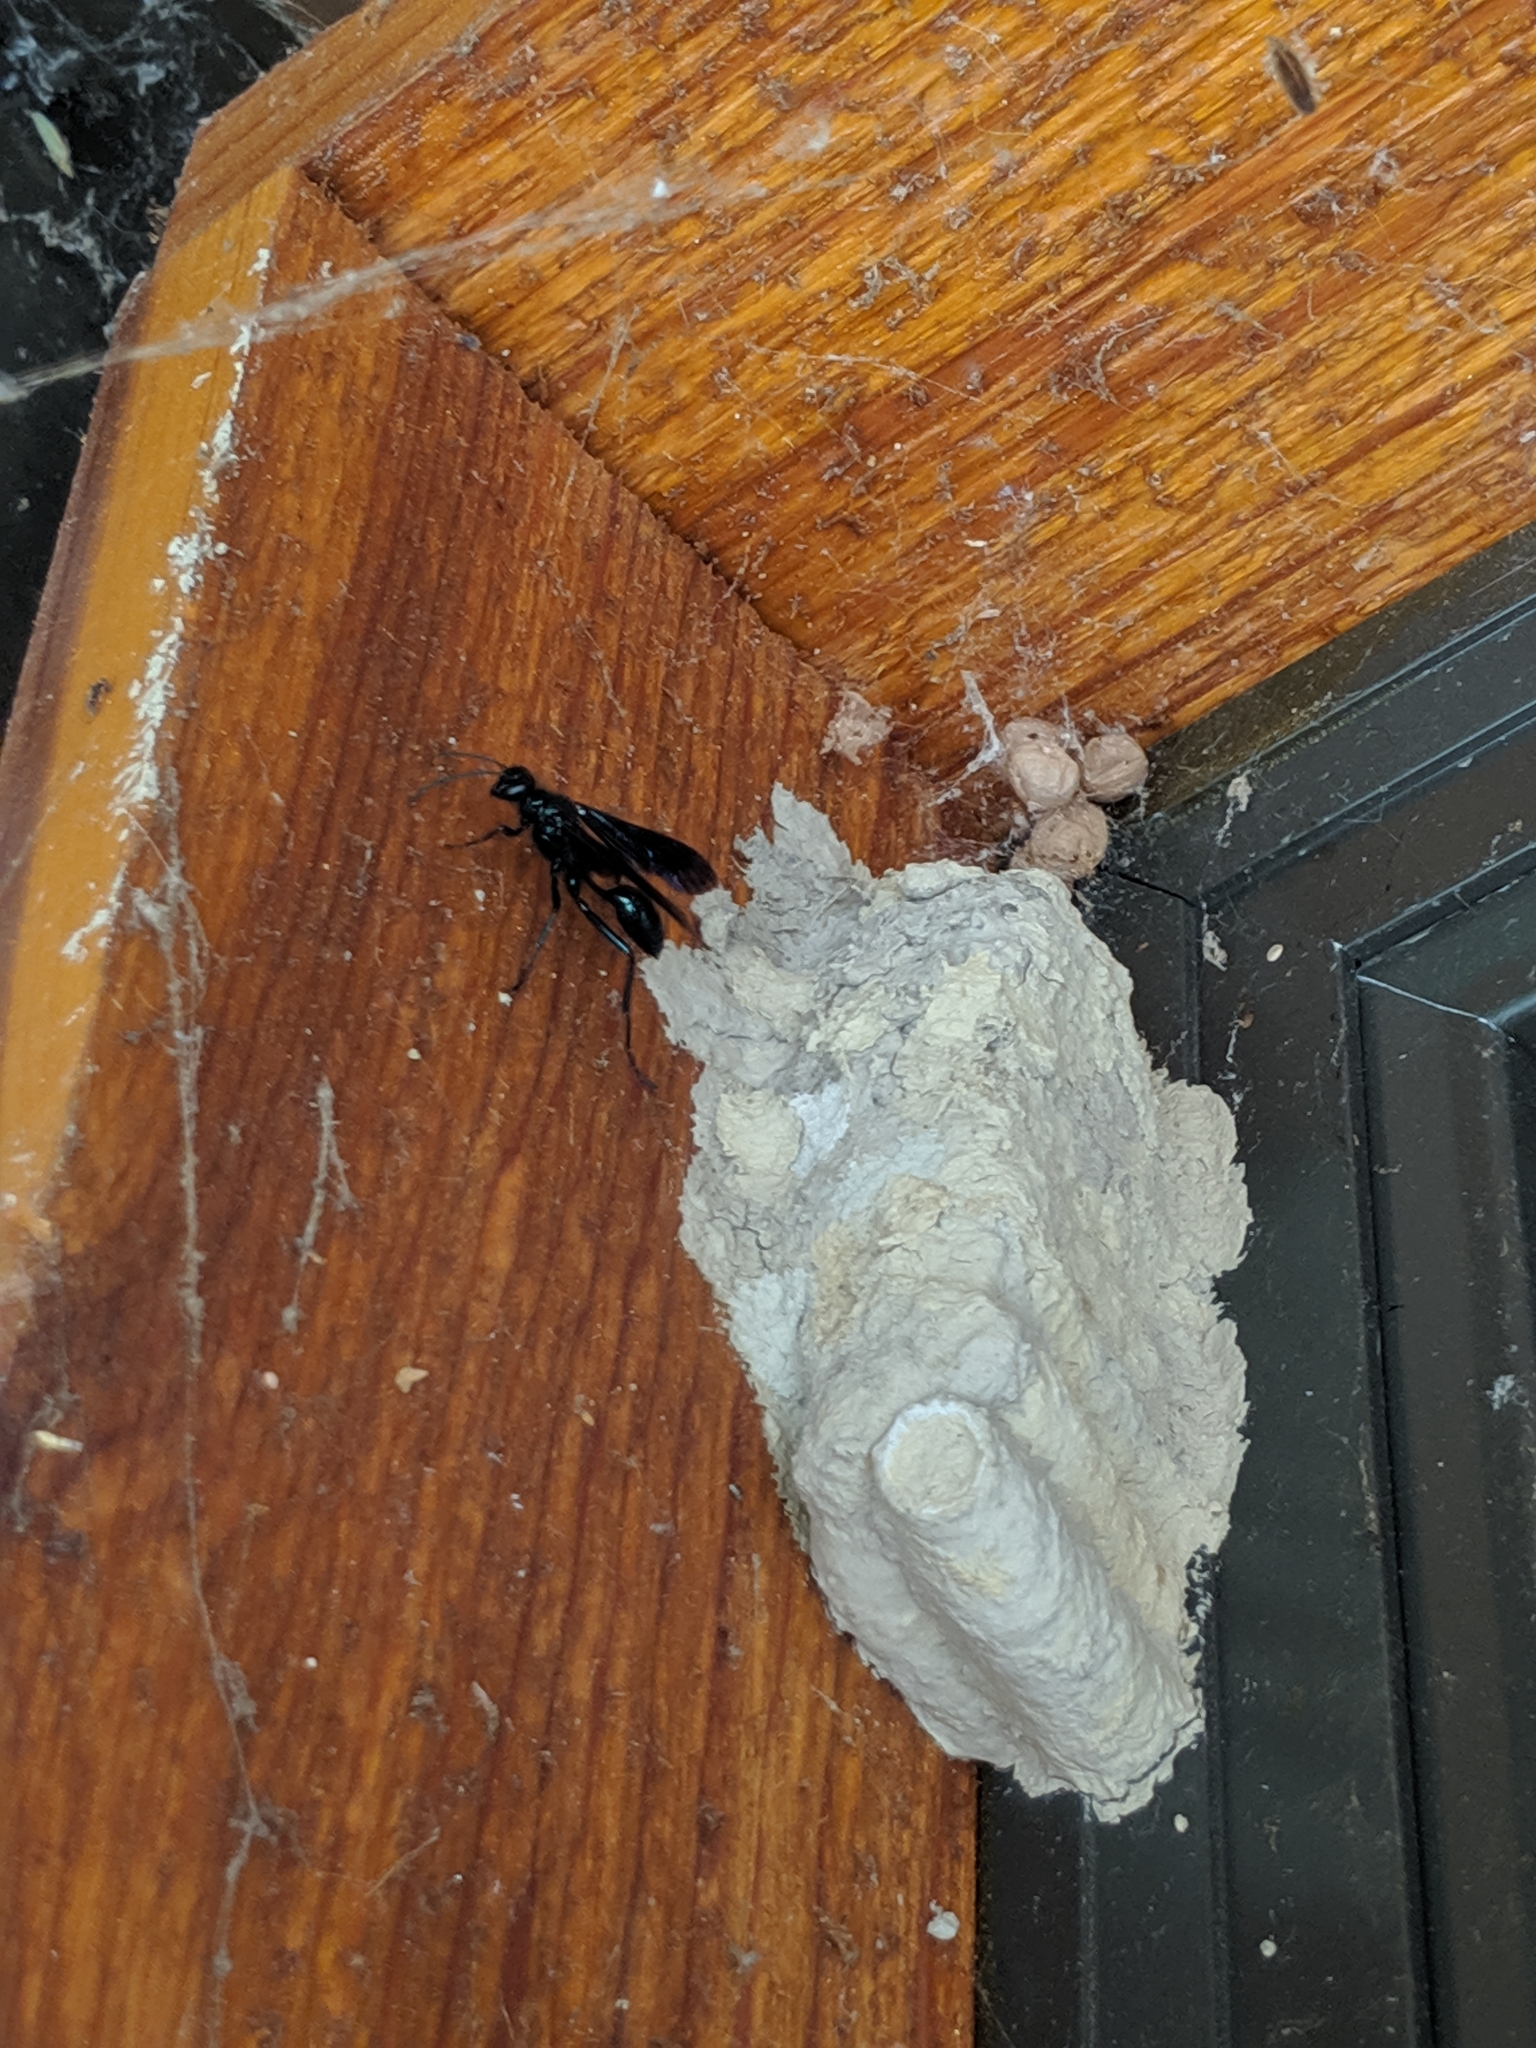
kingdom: Animalia
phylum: Arthropoda
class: Insecta
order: Hymenoptera
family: Sphecidae
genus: Chalybion
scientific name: Chalybion californicum
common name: Mud dauber
